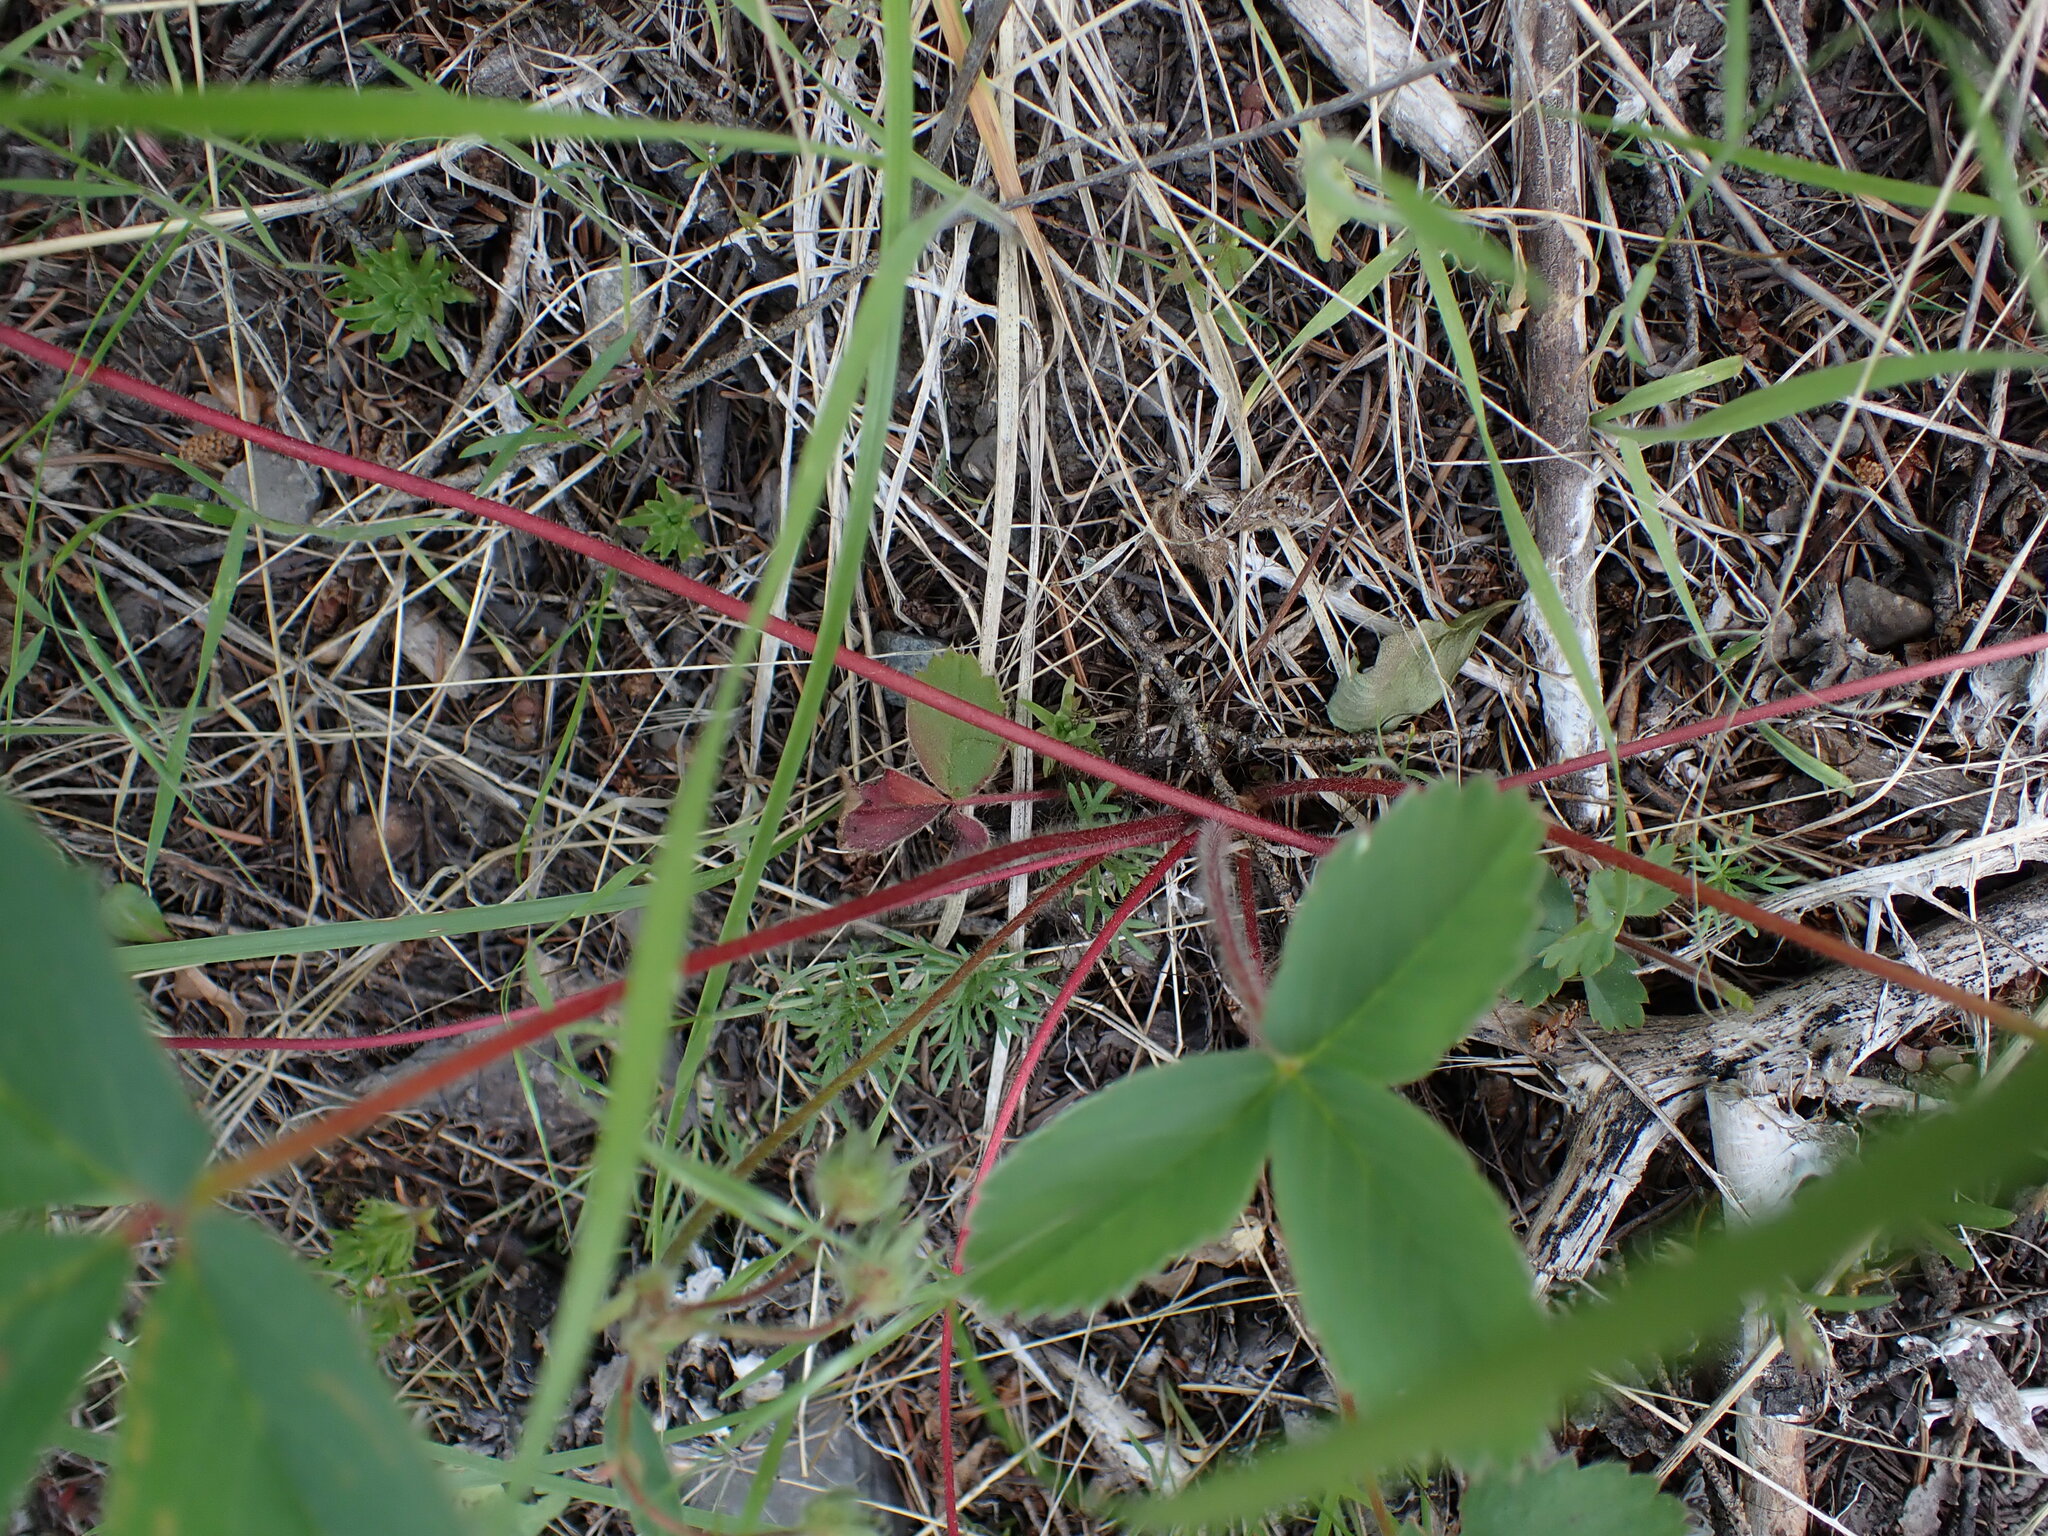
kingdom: Plantae
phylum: Tracheophyta
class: Magnoliopsida
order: Rosales
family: Rosaceae
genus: Fragaria
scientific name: Fragaria virginiana
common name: Thickleaved wild strawberry
